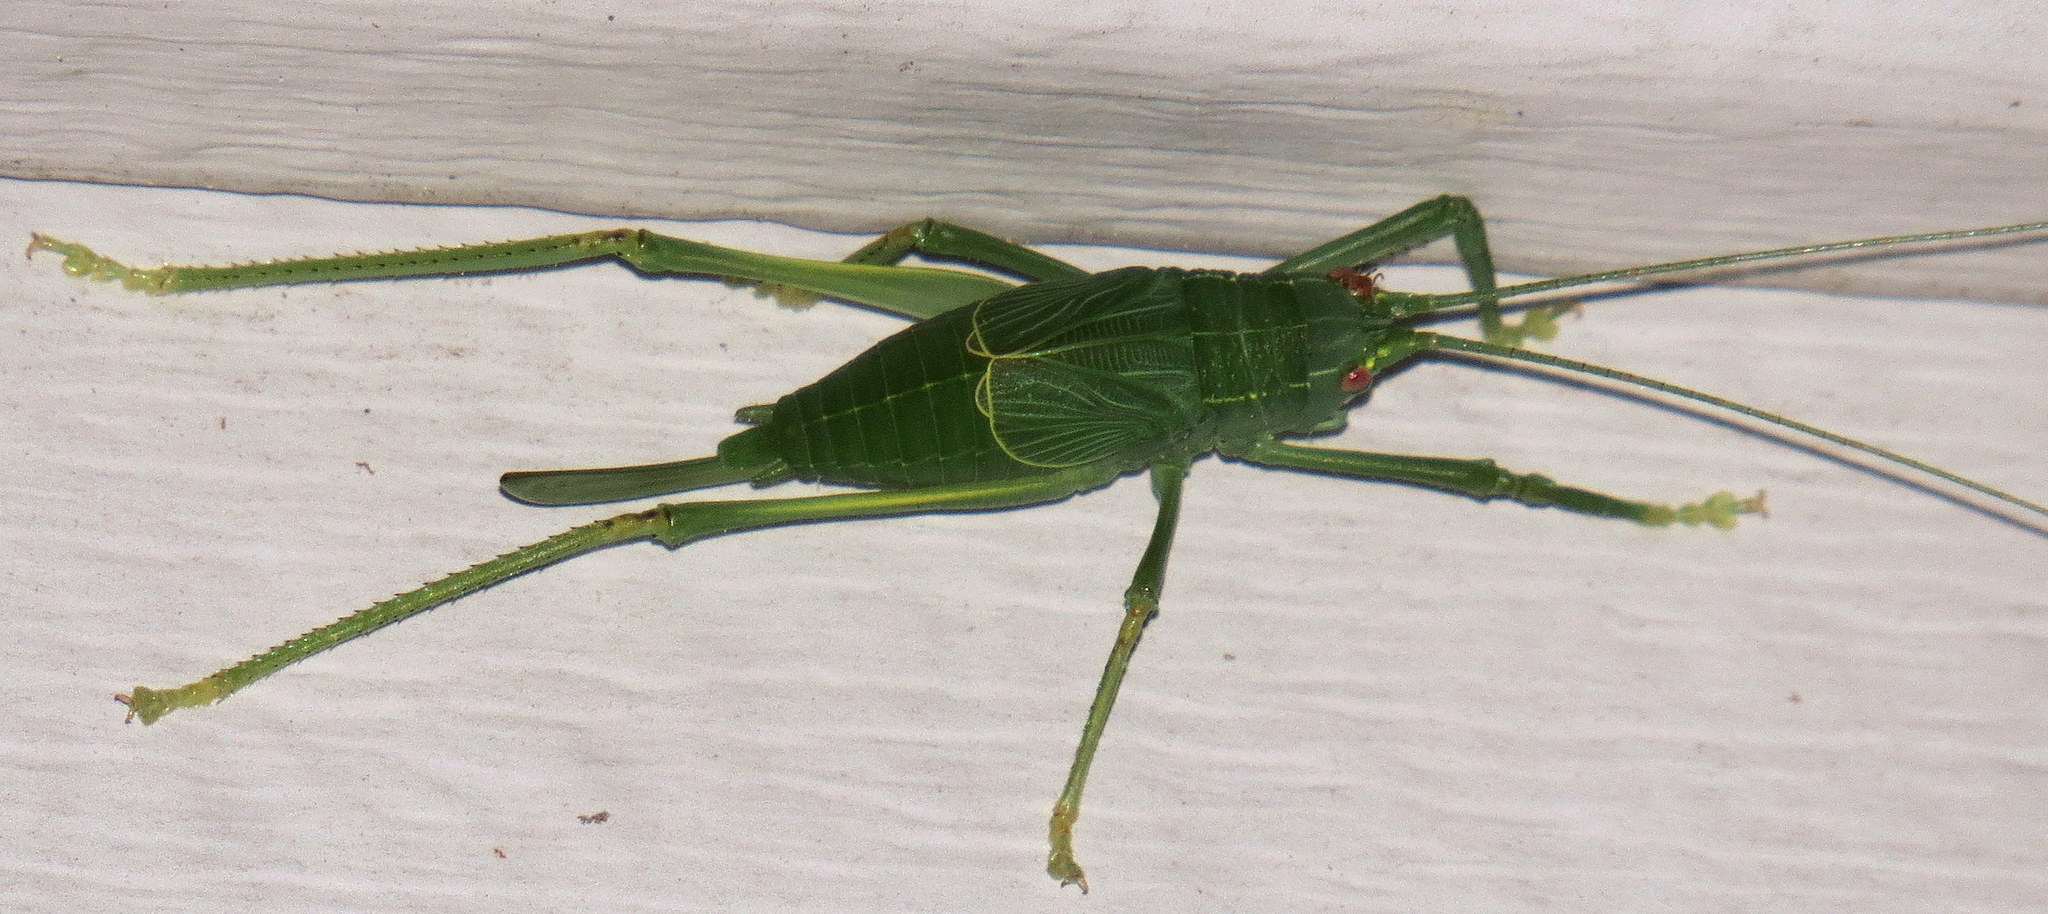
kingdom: Animalia
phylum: Arthropoda
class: Insecta
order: Orthoptera
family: Tettigoniidae
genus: Pterophylla
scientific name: Pterophylla camellifolia
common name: Common true katydid
